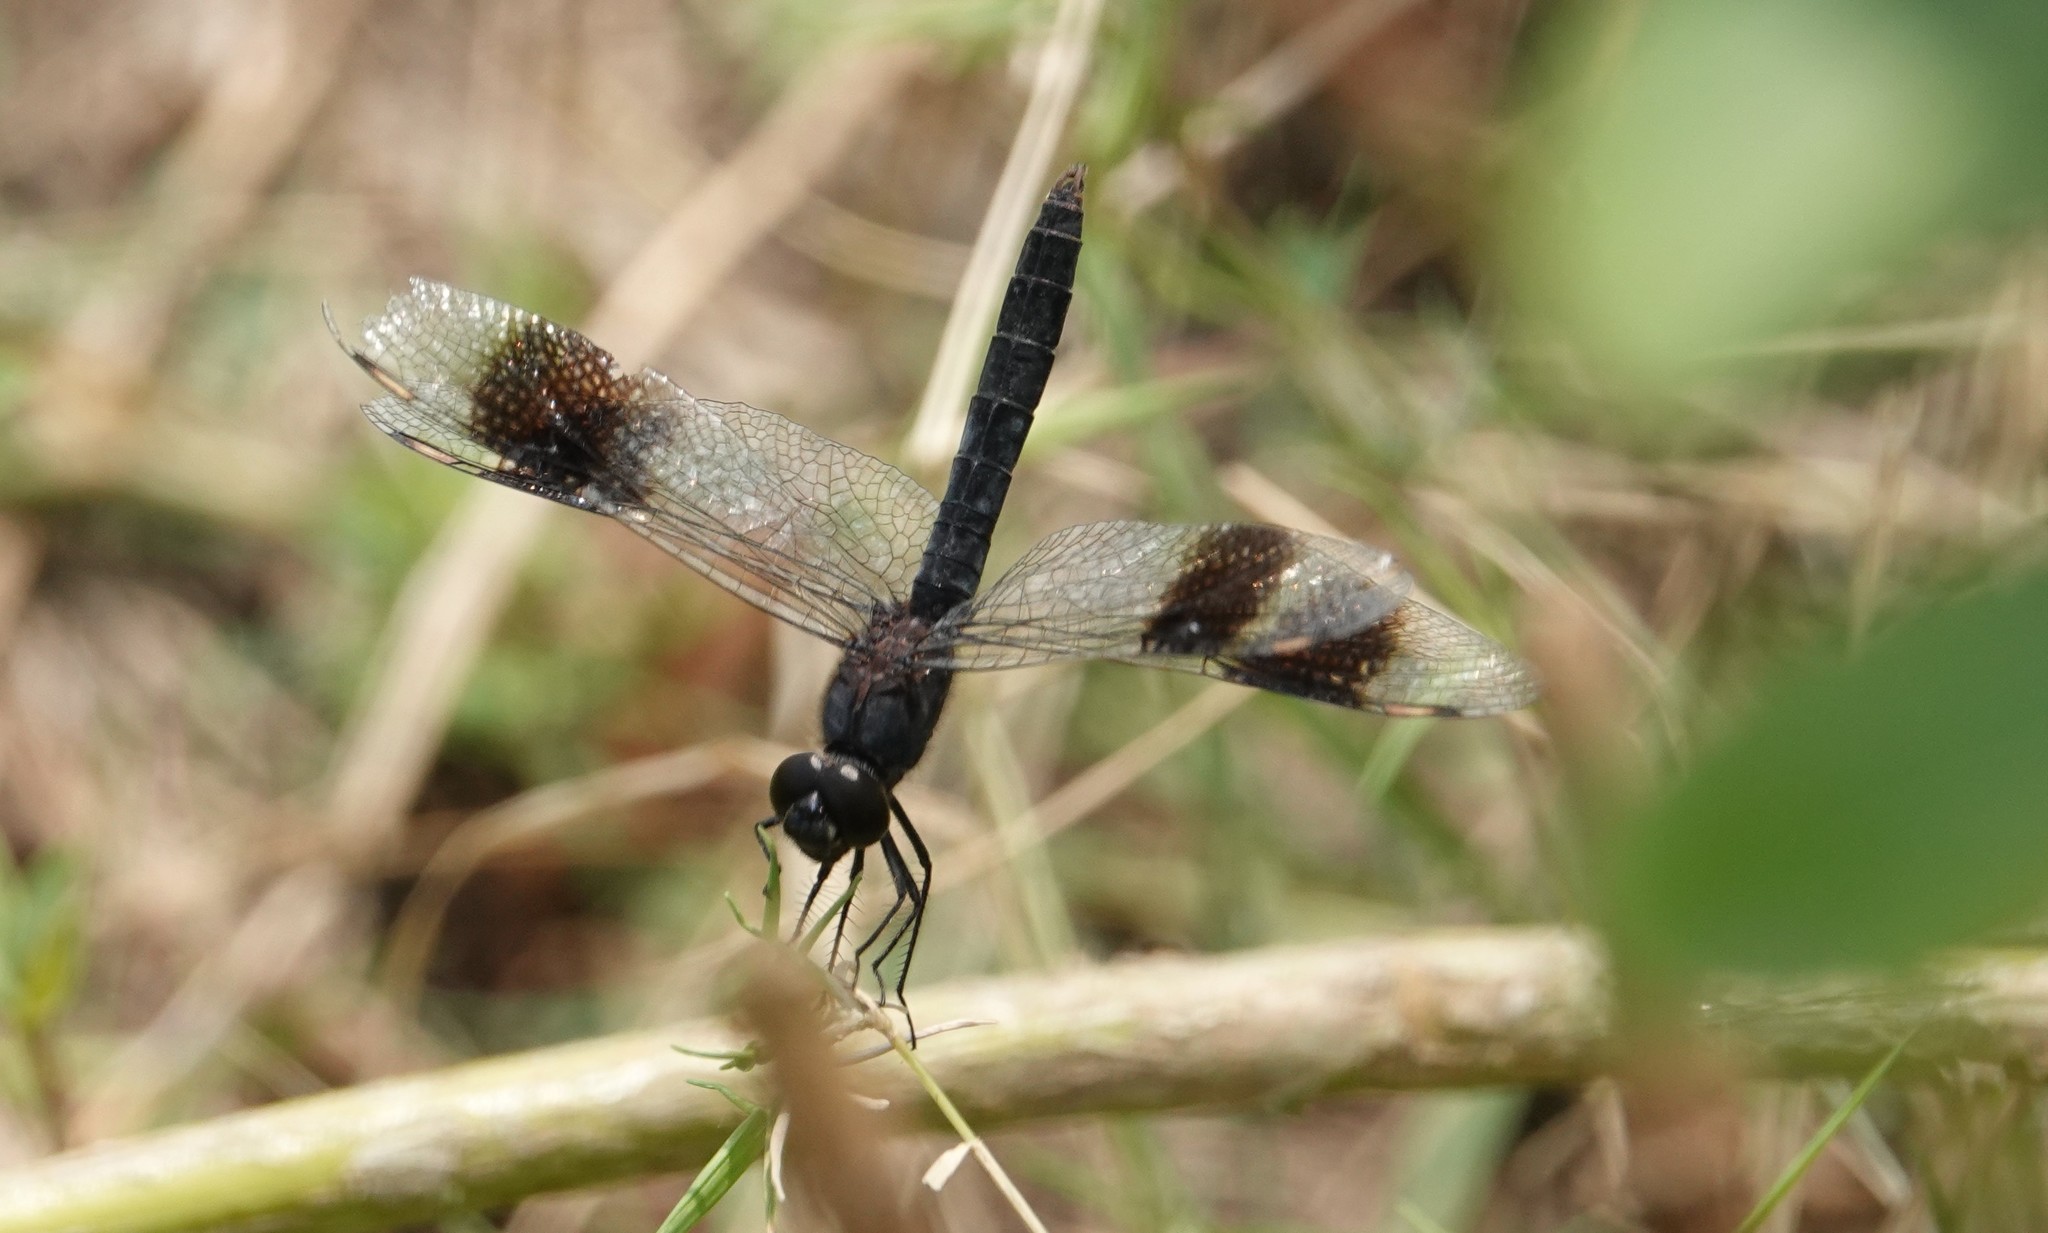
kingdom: Animalia
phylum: Arthropoda
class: Insecta
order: Odonata
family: Libellulidae
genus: Brachythemis
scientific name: Brachythemis leucosticta
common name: Banded groundling
